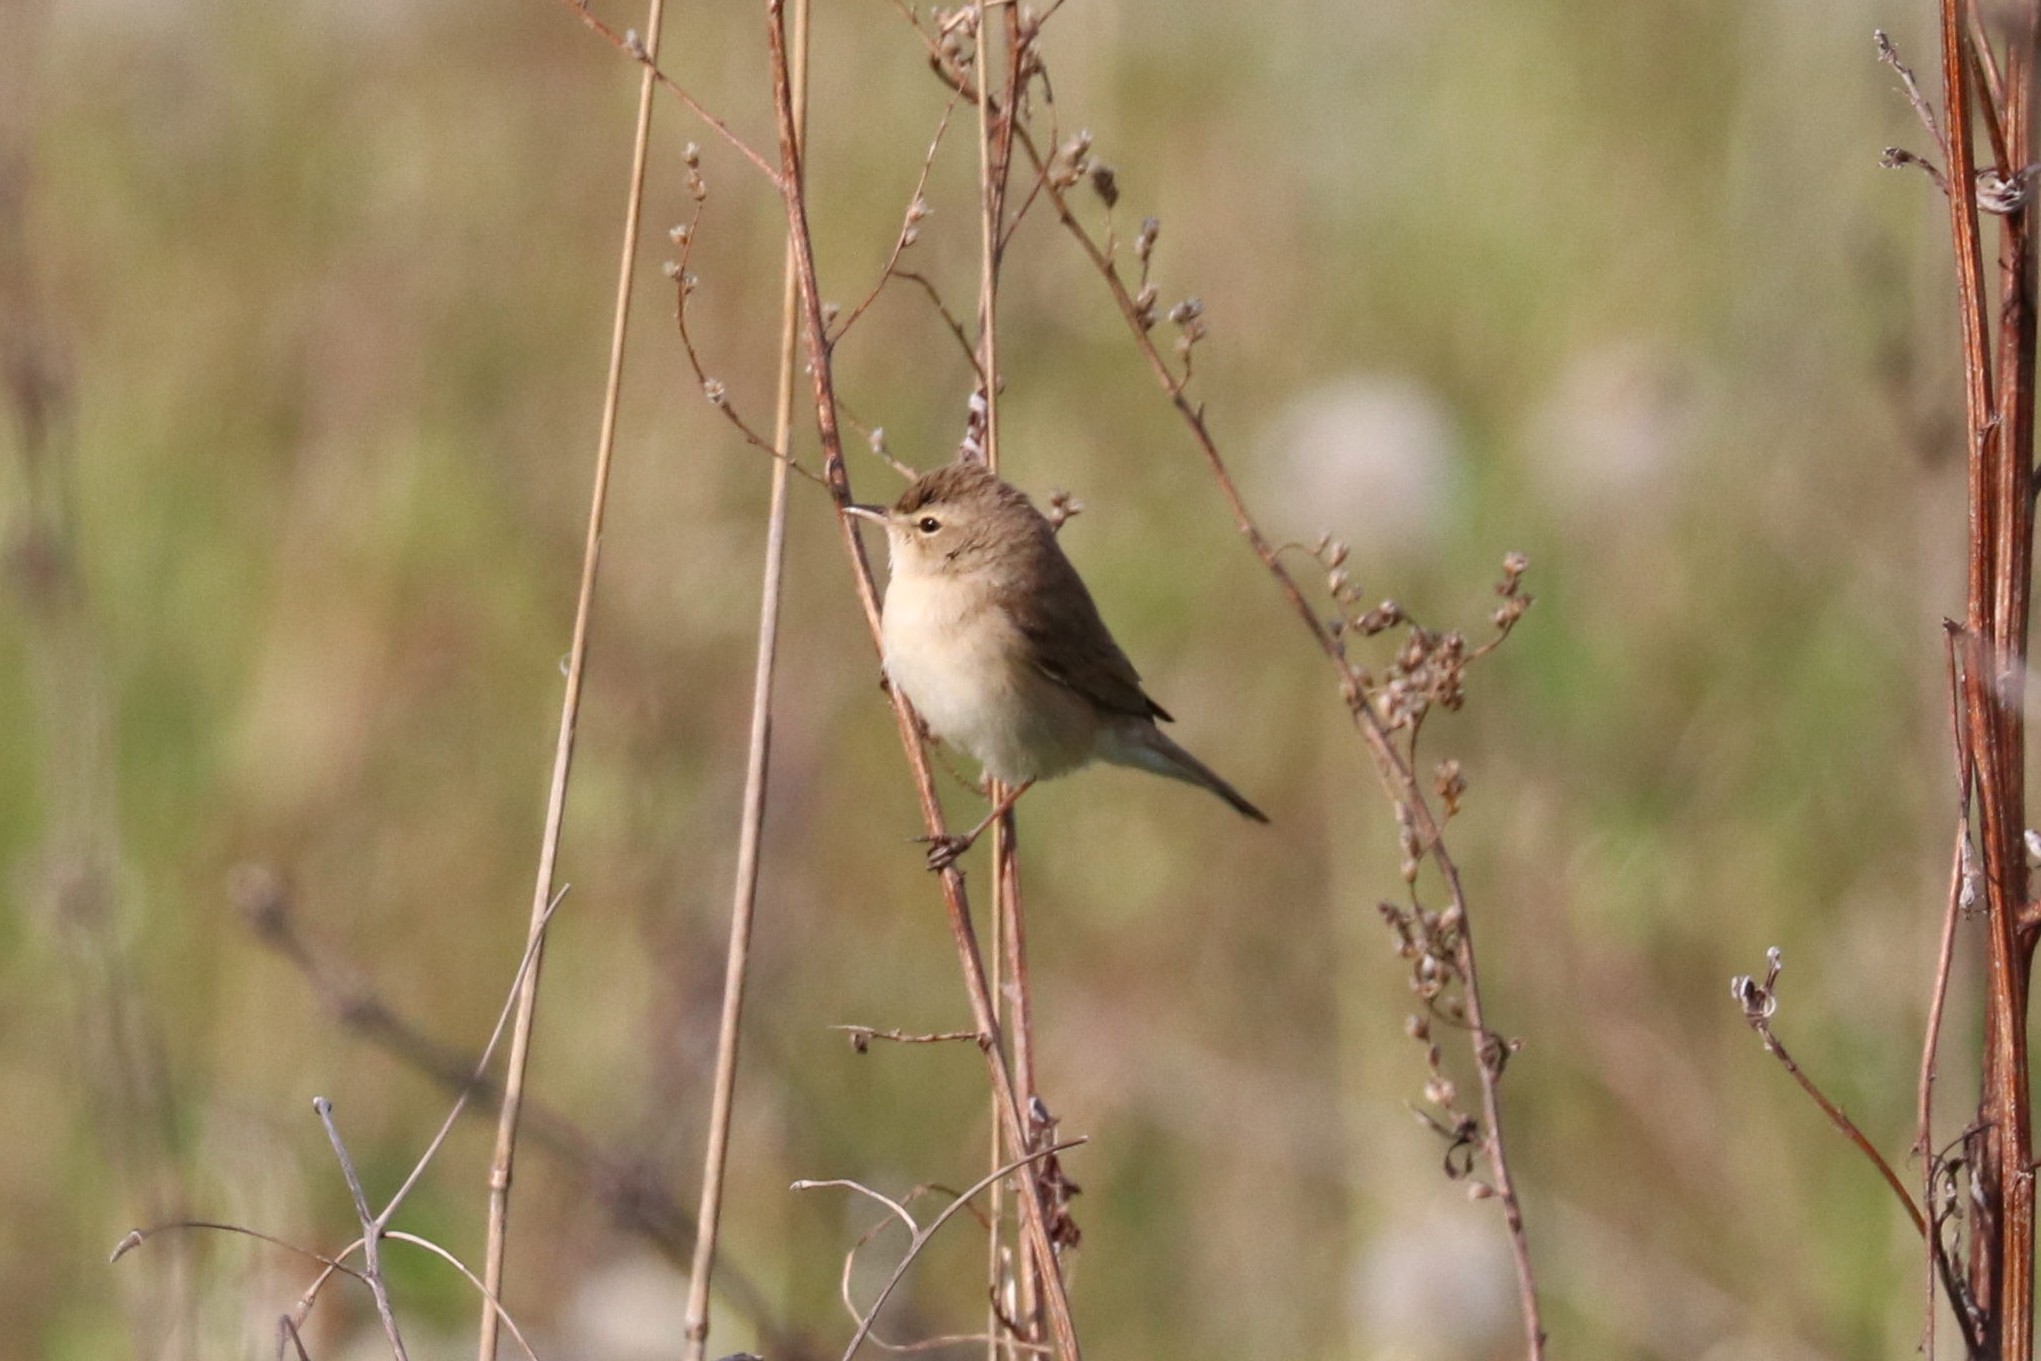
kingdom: Animalia
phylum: Chordata
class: Aves
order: Passeriformes
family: Acrocephalidae
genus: Iduna
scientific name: Iduna caligata
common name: Booted warbler
